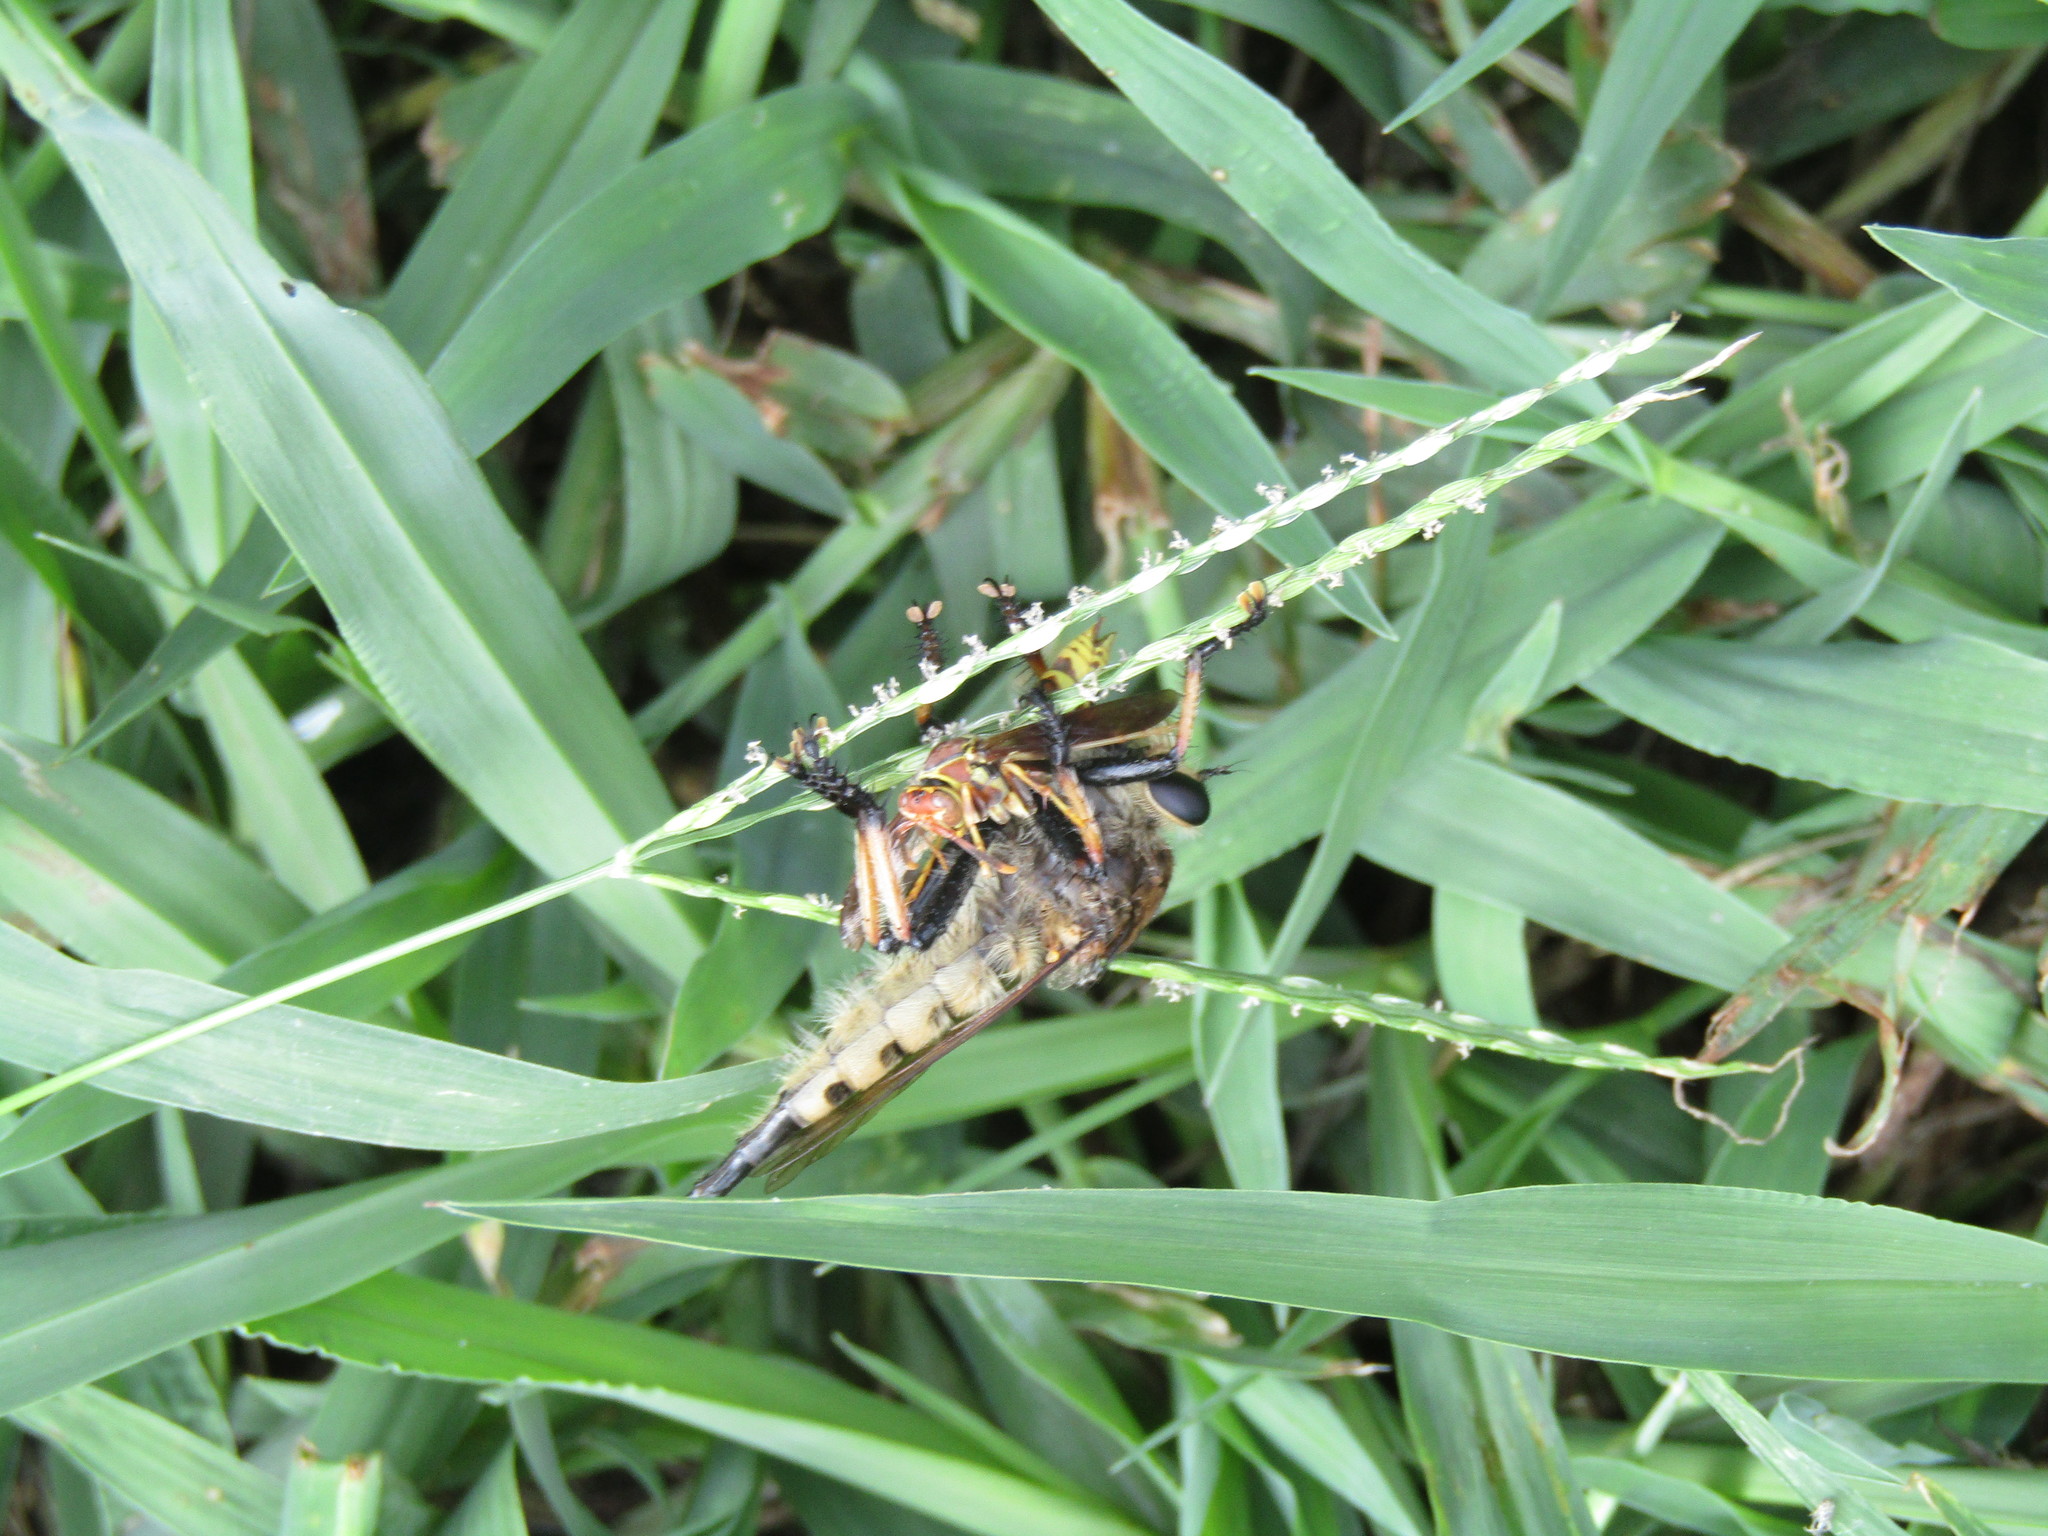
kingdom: Animalia
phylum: Arthropoda
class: Insecta
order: Diptera
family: Asilidae
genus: Promachus
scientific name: Promachus rufipes
